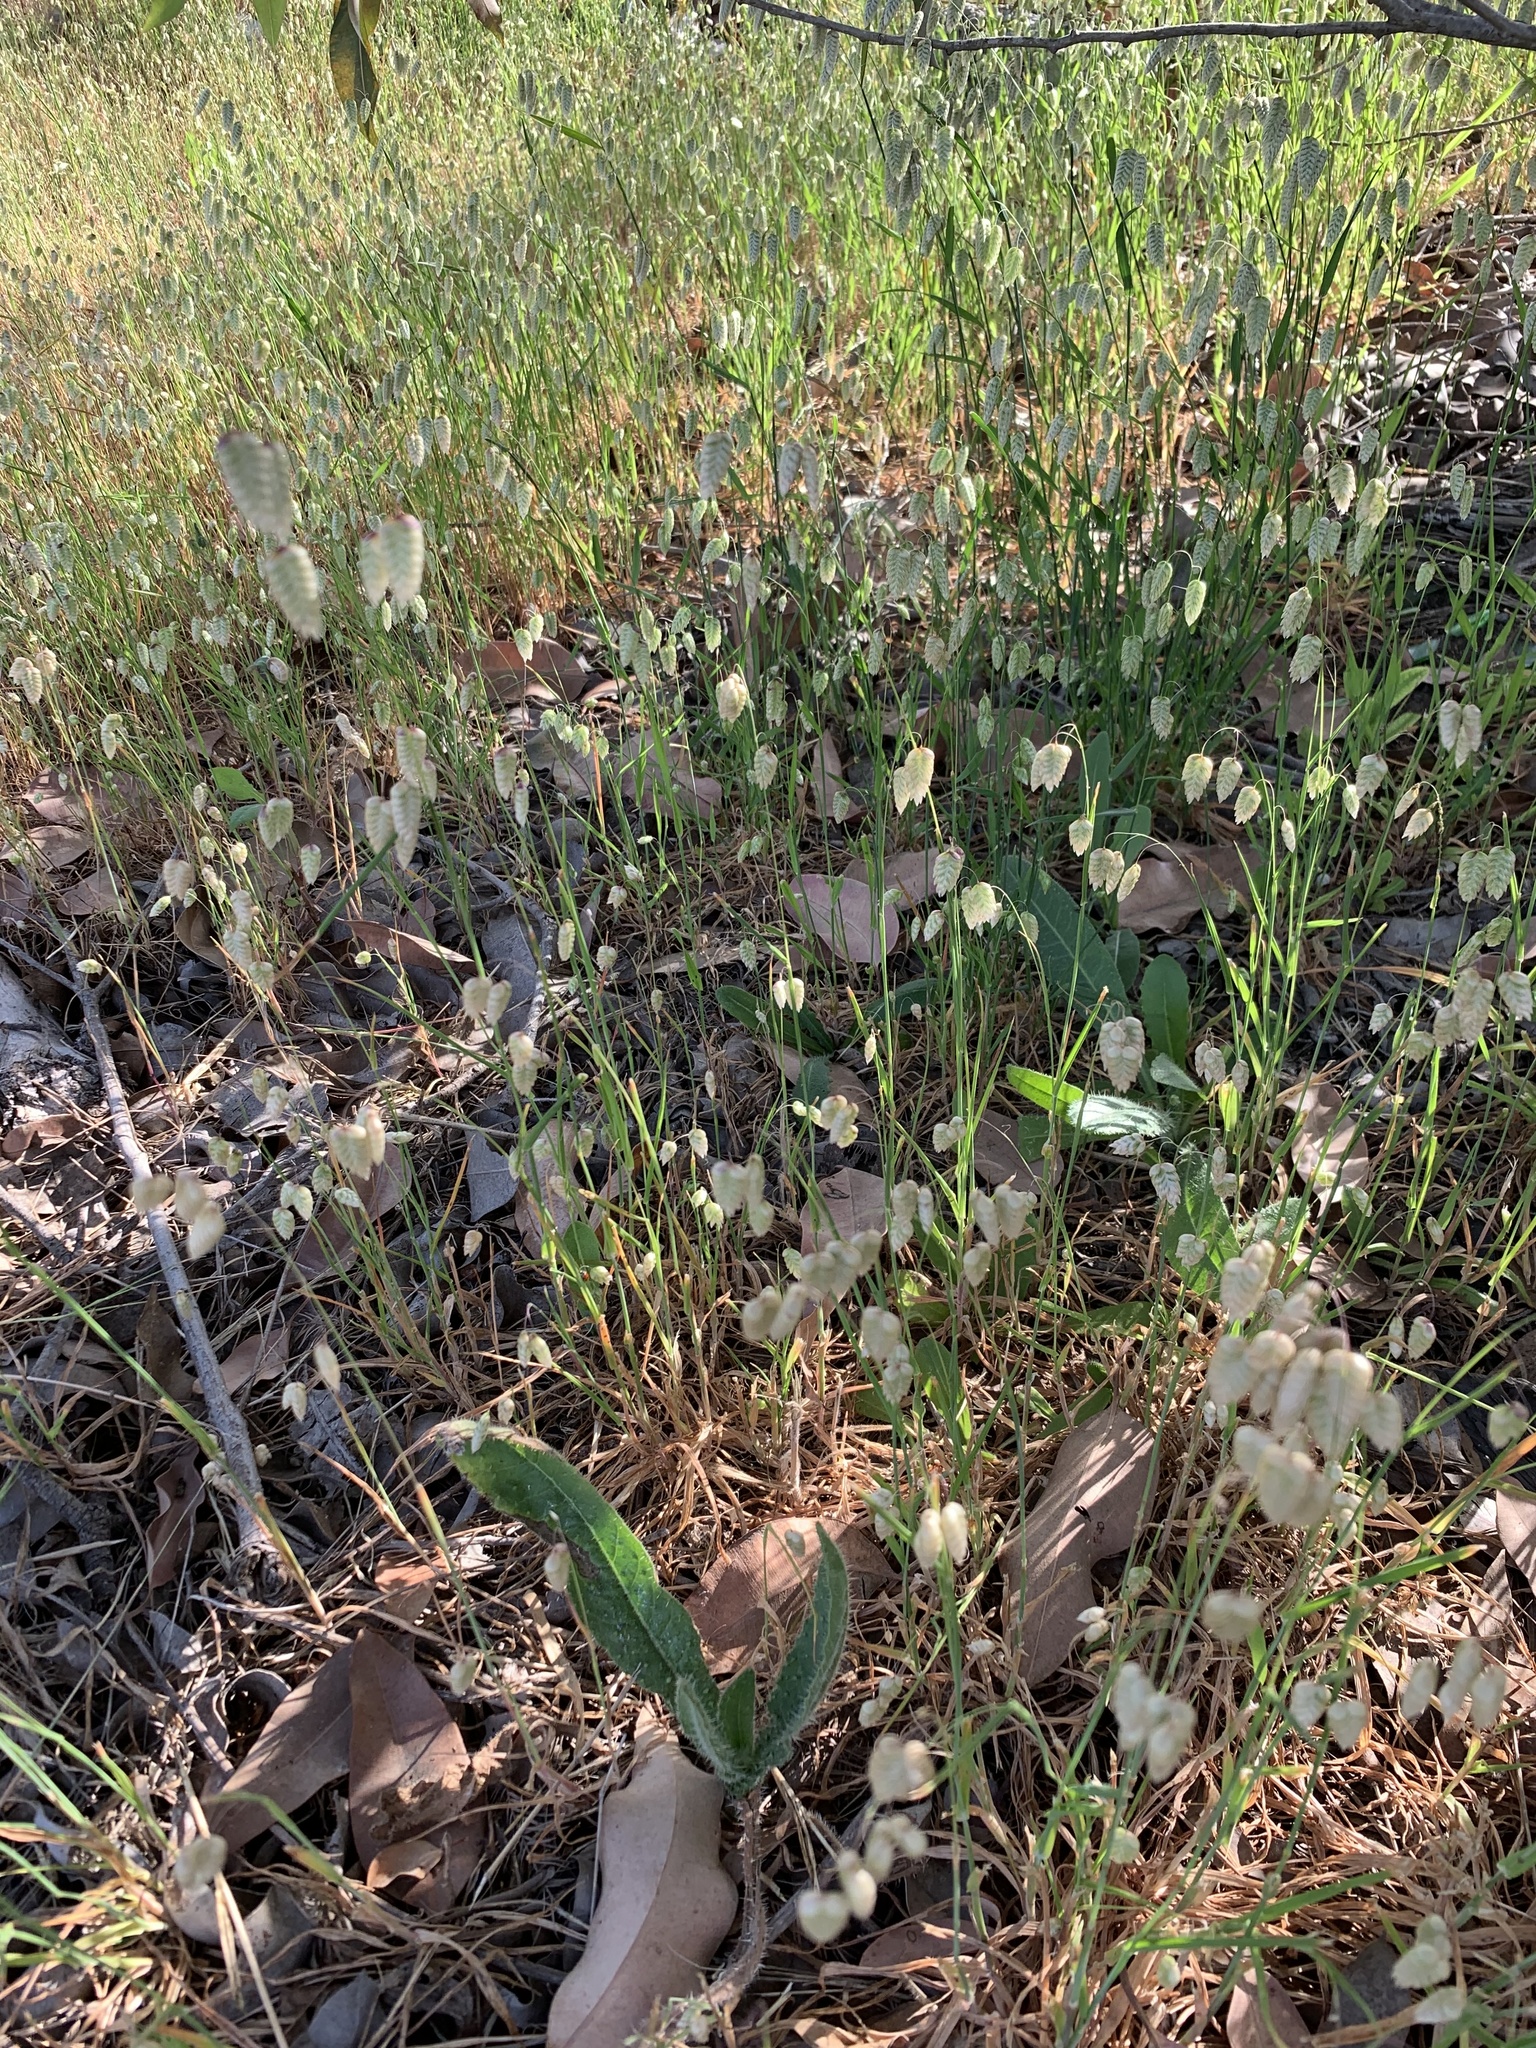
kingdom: Plantae
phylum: Tracheophyta
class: Liliopsida
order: Poales
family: Poaceae
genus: Briza
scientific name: Briza maxima
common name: Big quakinggrass
